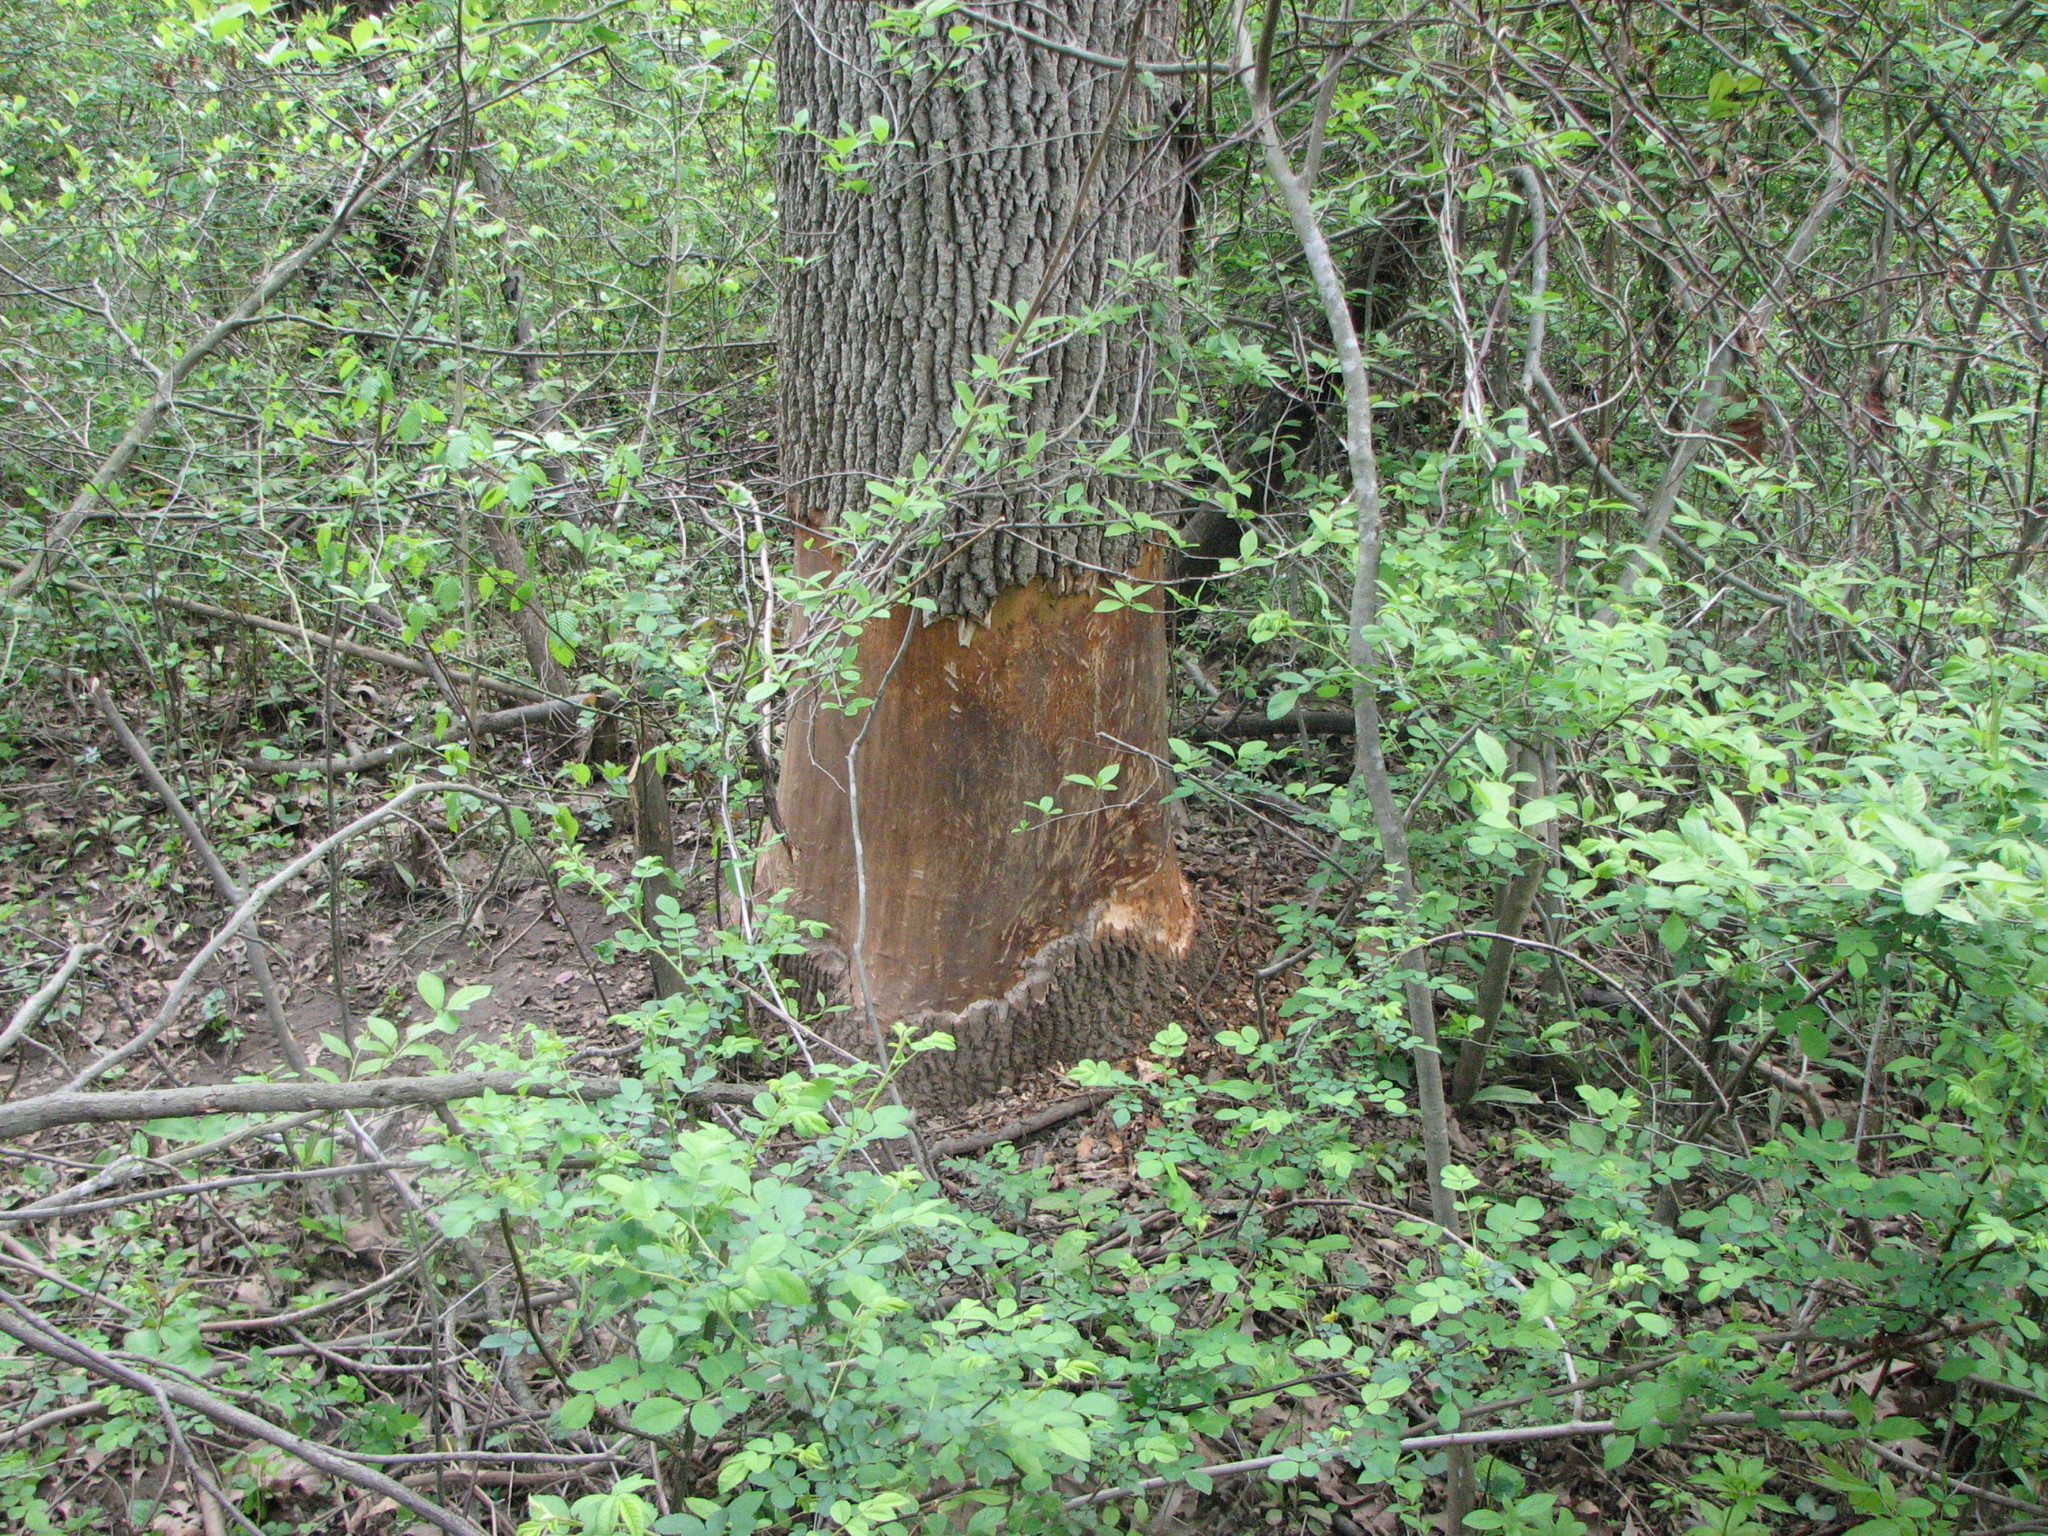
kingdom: Animalia
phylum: Chordata
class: Mammalia
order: Rodentia
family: Castoridae
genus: Castor
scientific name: Castor canadensis
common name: American beaver
